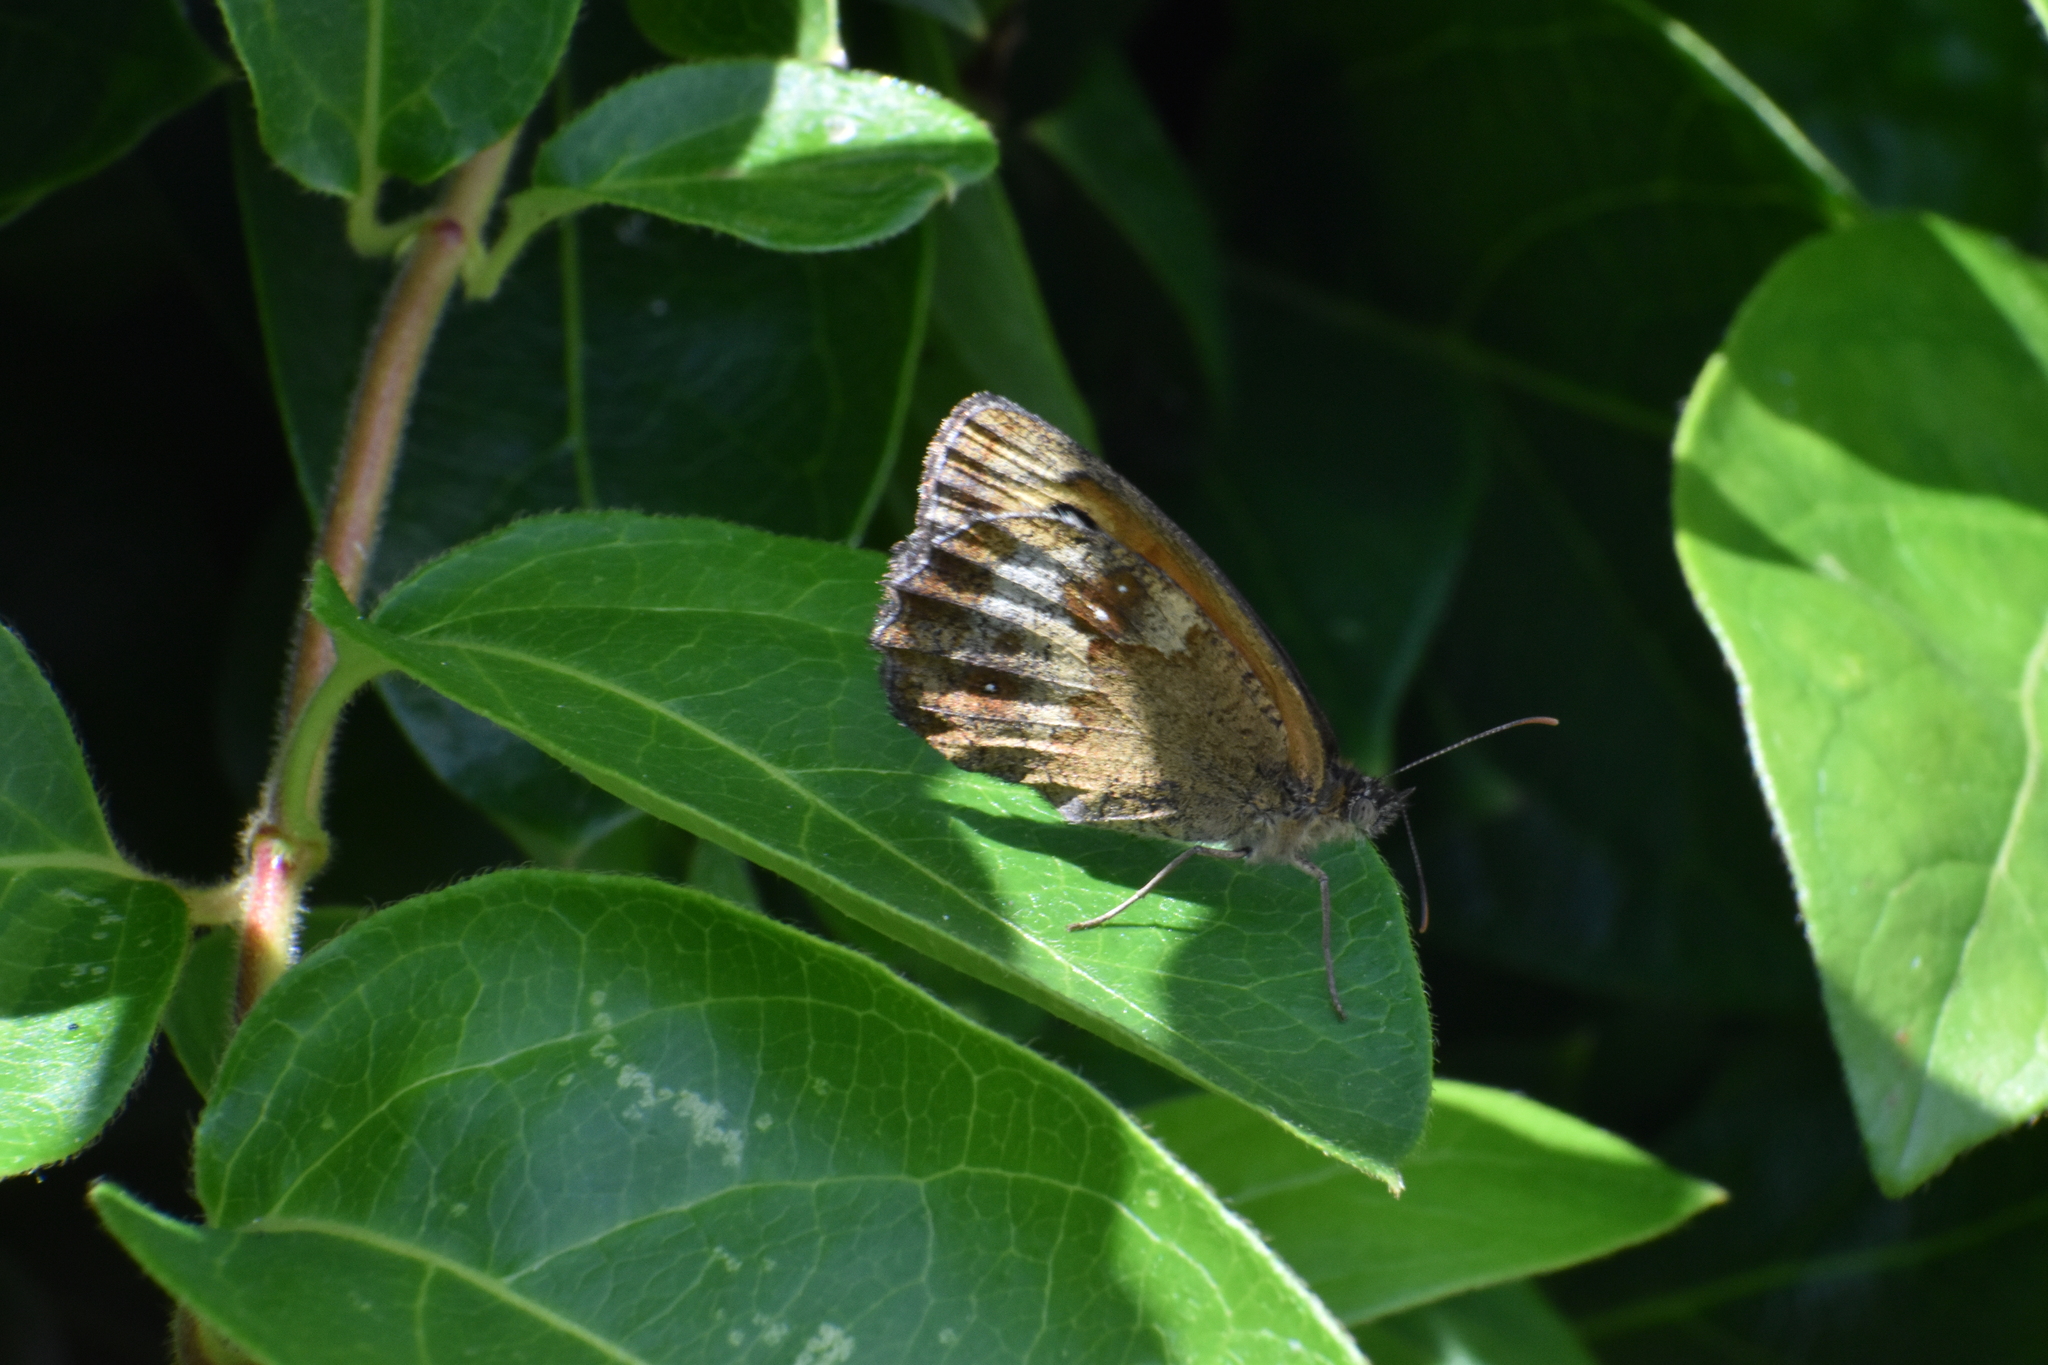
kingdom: Animalia
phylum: Arthropoda
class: Insecta
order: Lepidoptera
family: Nymphalidae
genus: Pyronia
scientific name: Pyronia tithonus
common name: Gatekeeper
